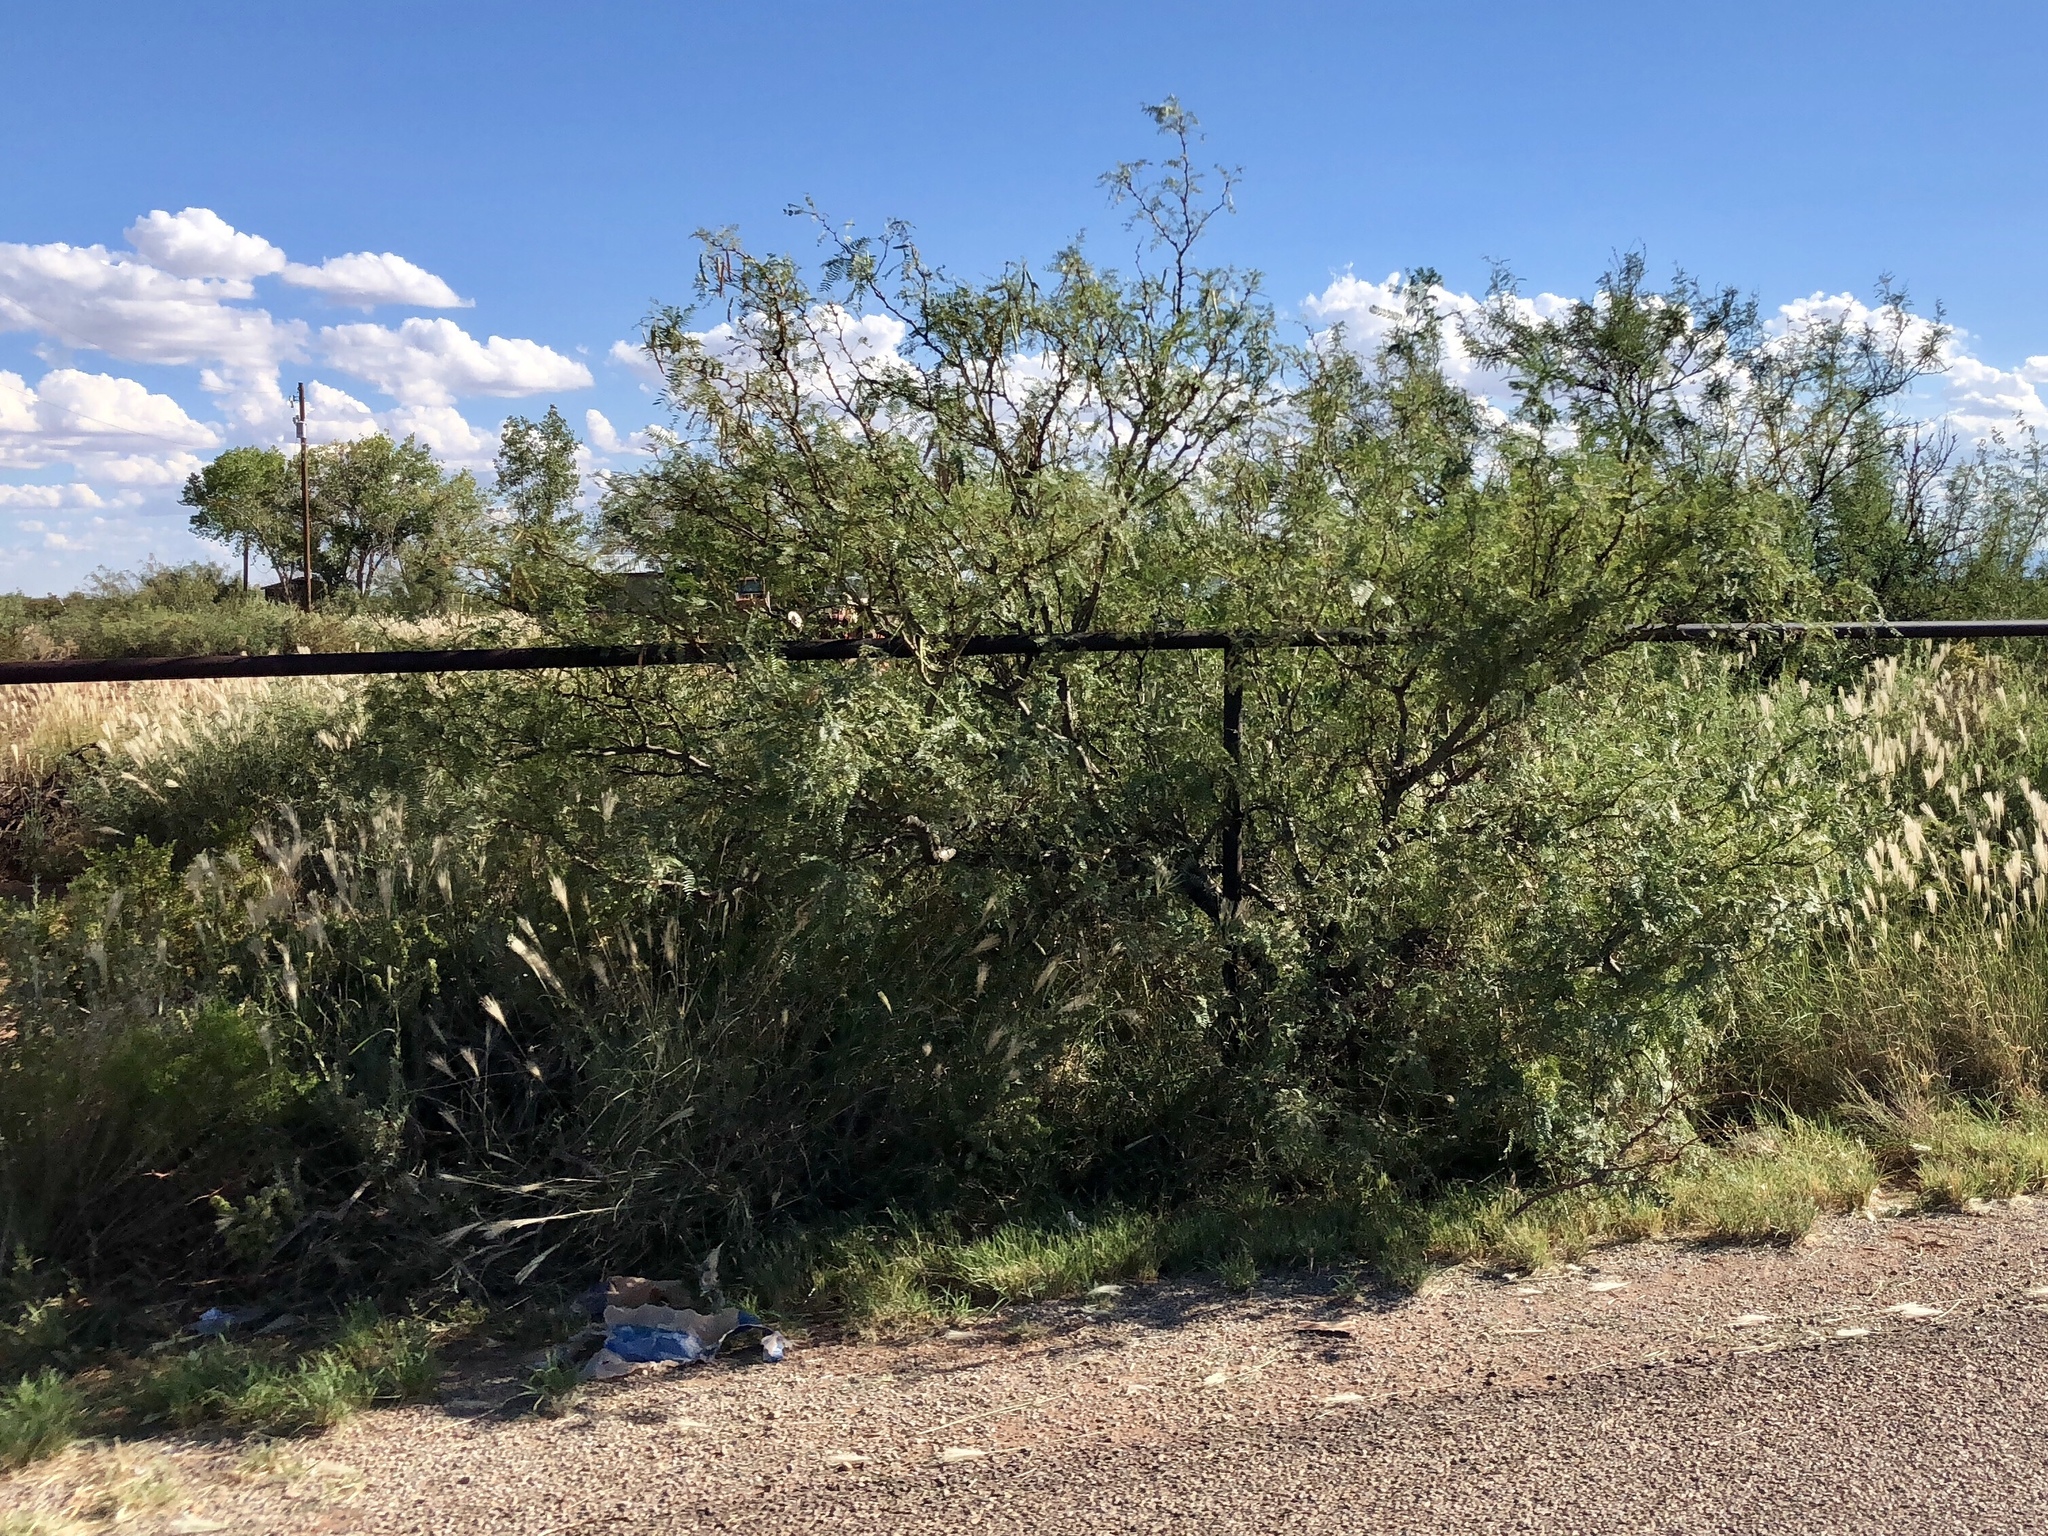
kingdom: Plantae
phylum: Tracheophyta
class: Magnoliopsida
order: Fabales
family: Fabaceae
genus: Prosopis
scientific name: Prosopis glandulosa
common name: Honey mesquite
